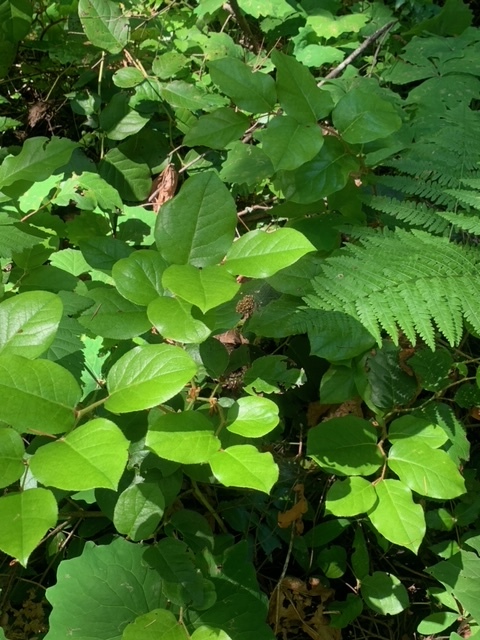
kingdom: Plantae
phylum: Tracheophyta
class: Magnoliopsida
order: Ericales
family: Ericaceae
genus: Gaultheria
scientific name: Gaultheria shallon
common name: Shallon
